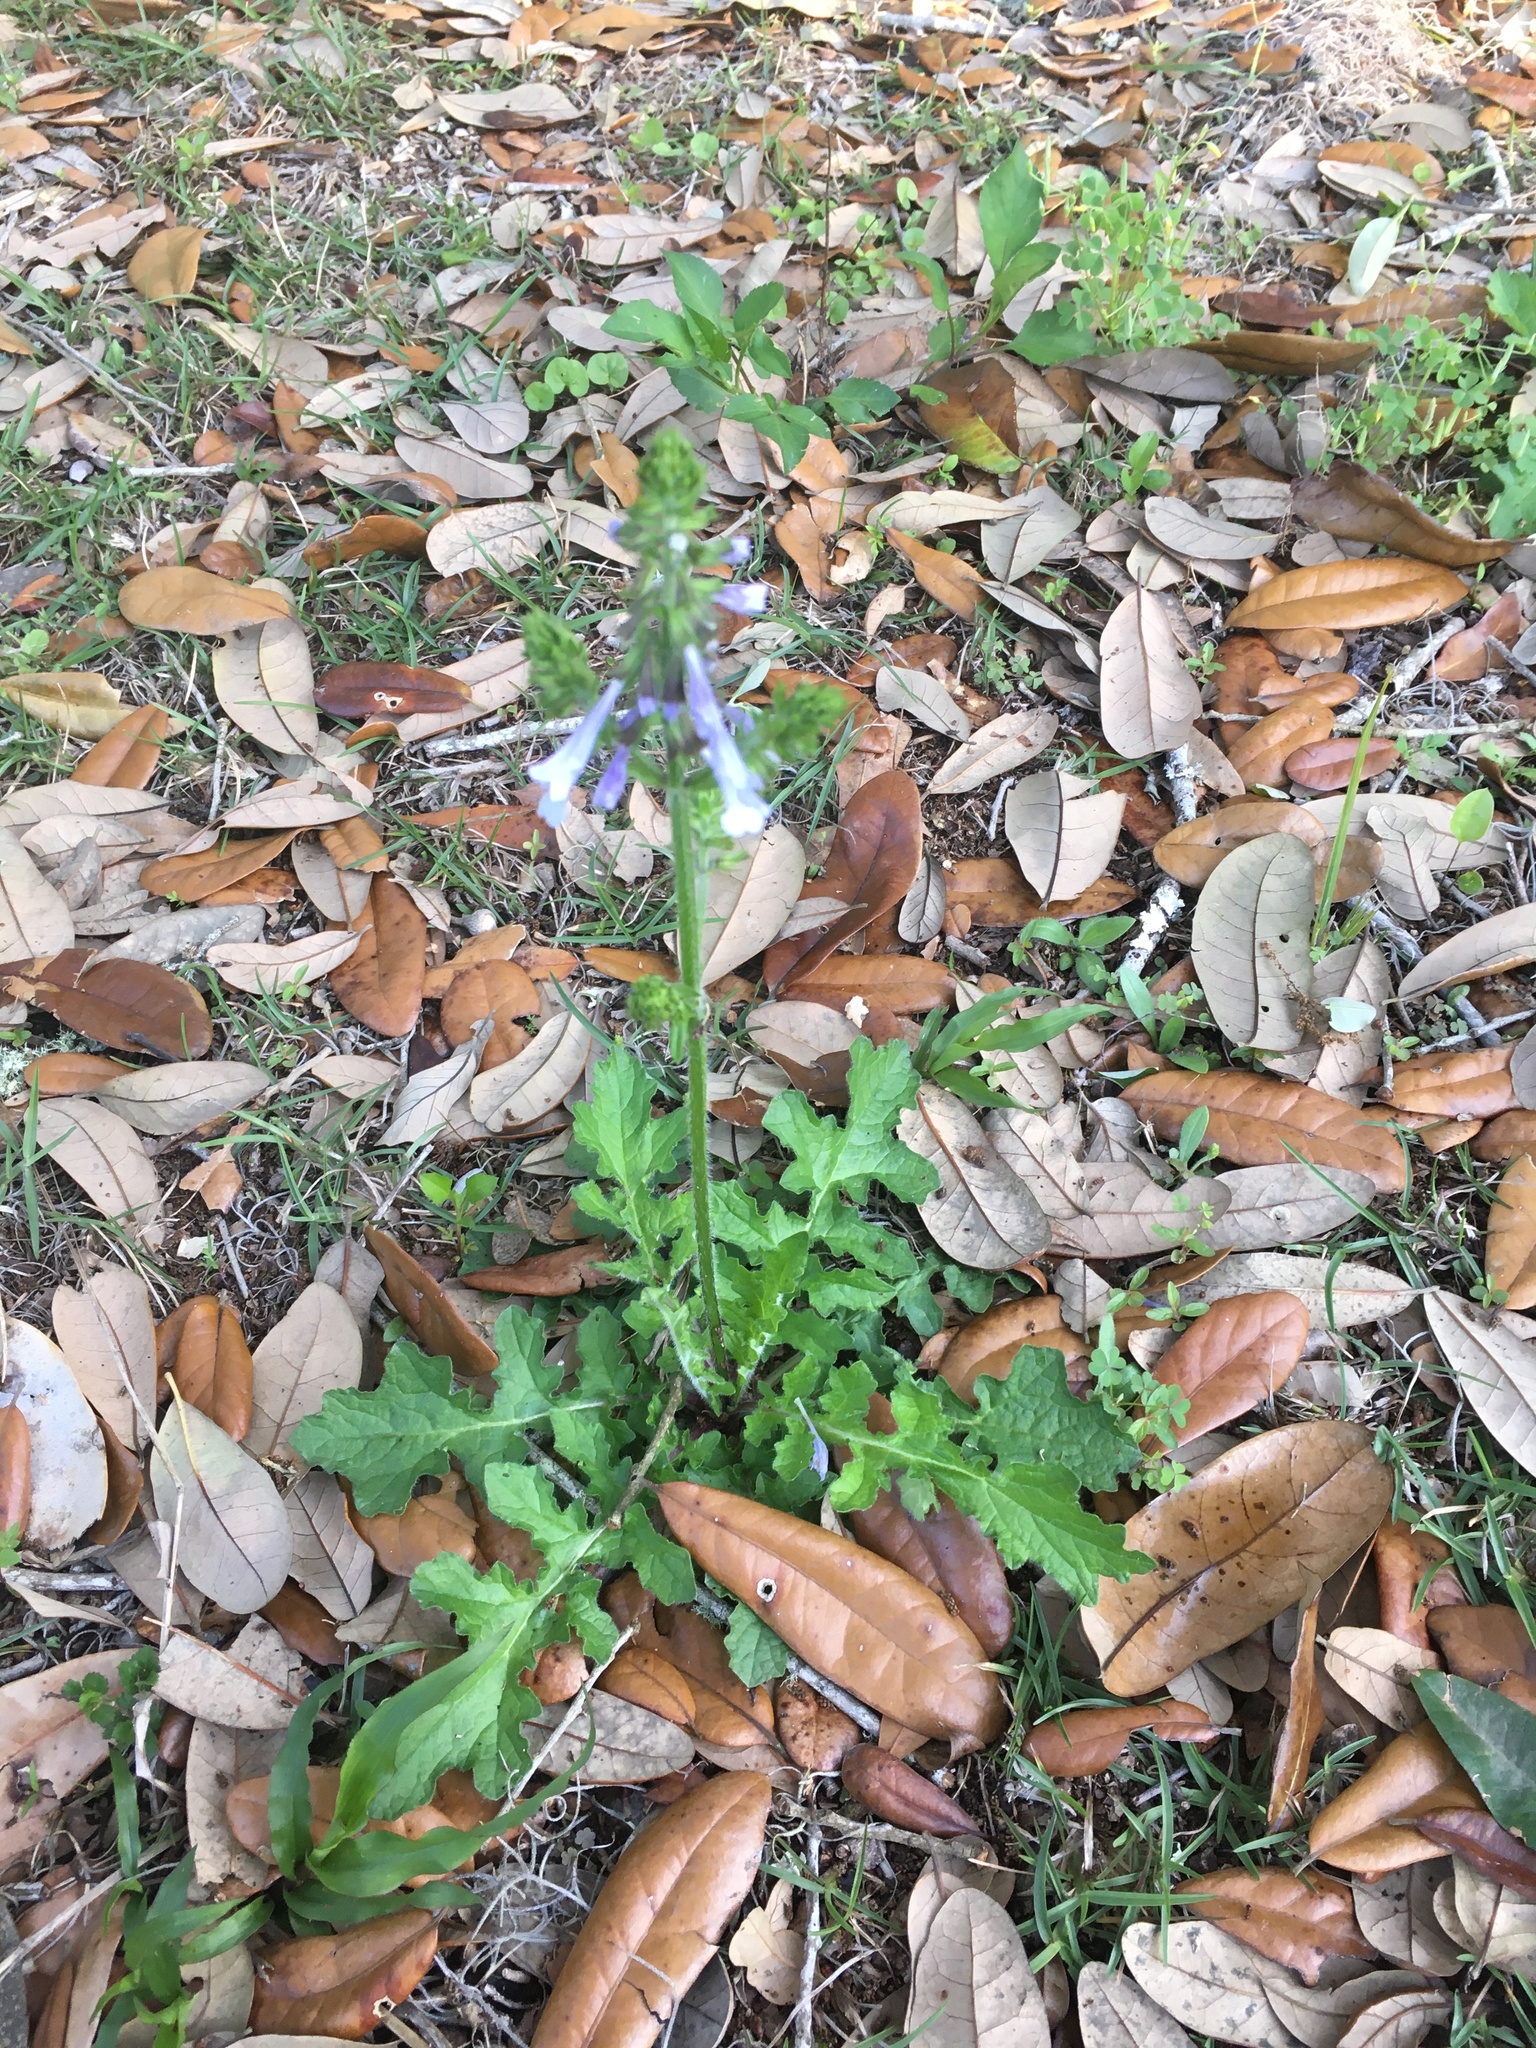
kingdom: Plantae
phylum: Tracheophyta
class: Magnoliopsida
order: Lamiales
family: Lamiaceae
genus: Salvia
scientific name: Salvia lyrata
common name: Cancerweed
